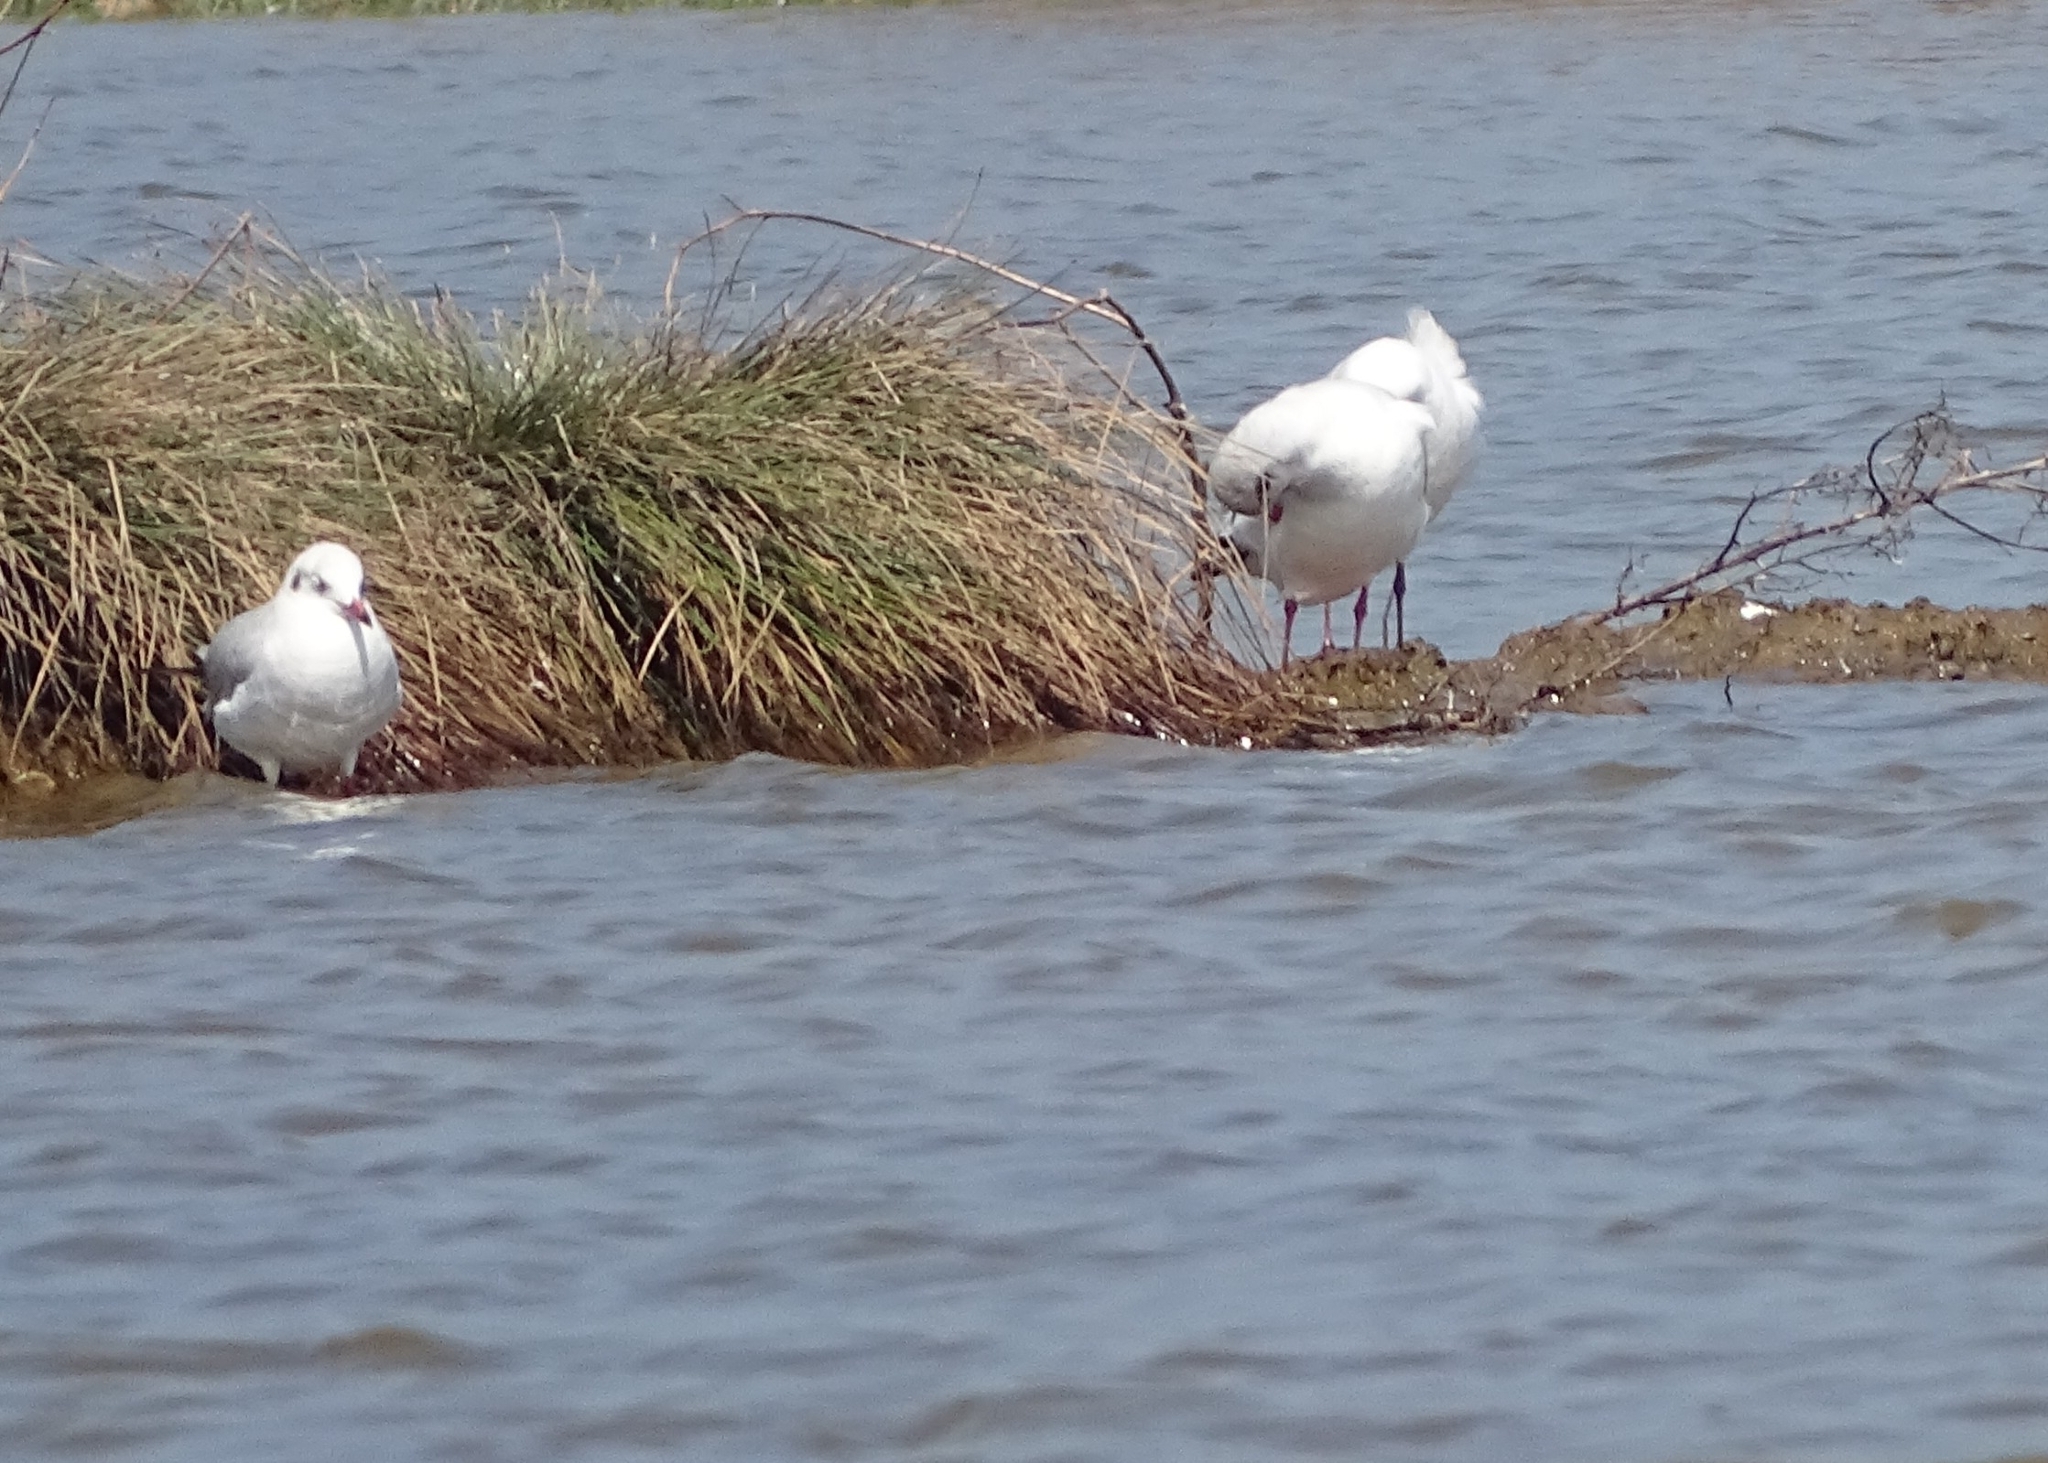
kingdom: Animalia
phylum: Chordata
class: Aves
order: Charadriiformes
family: Laridae
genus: Chroicocephalus
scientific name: Chroicocephalus brunnicephalus
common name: Brown-headed gull
